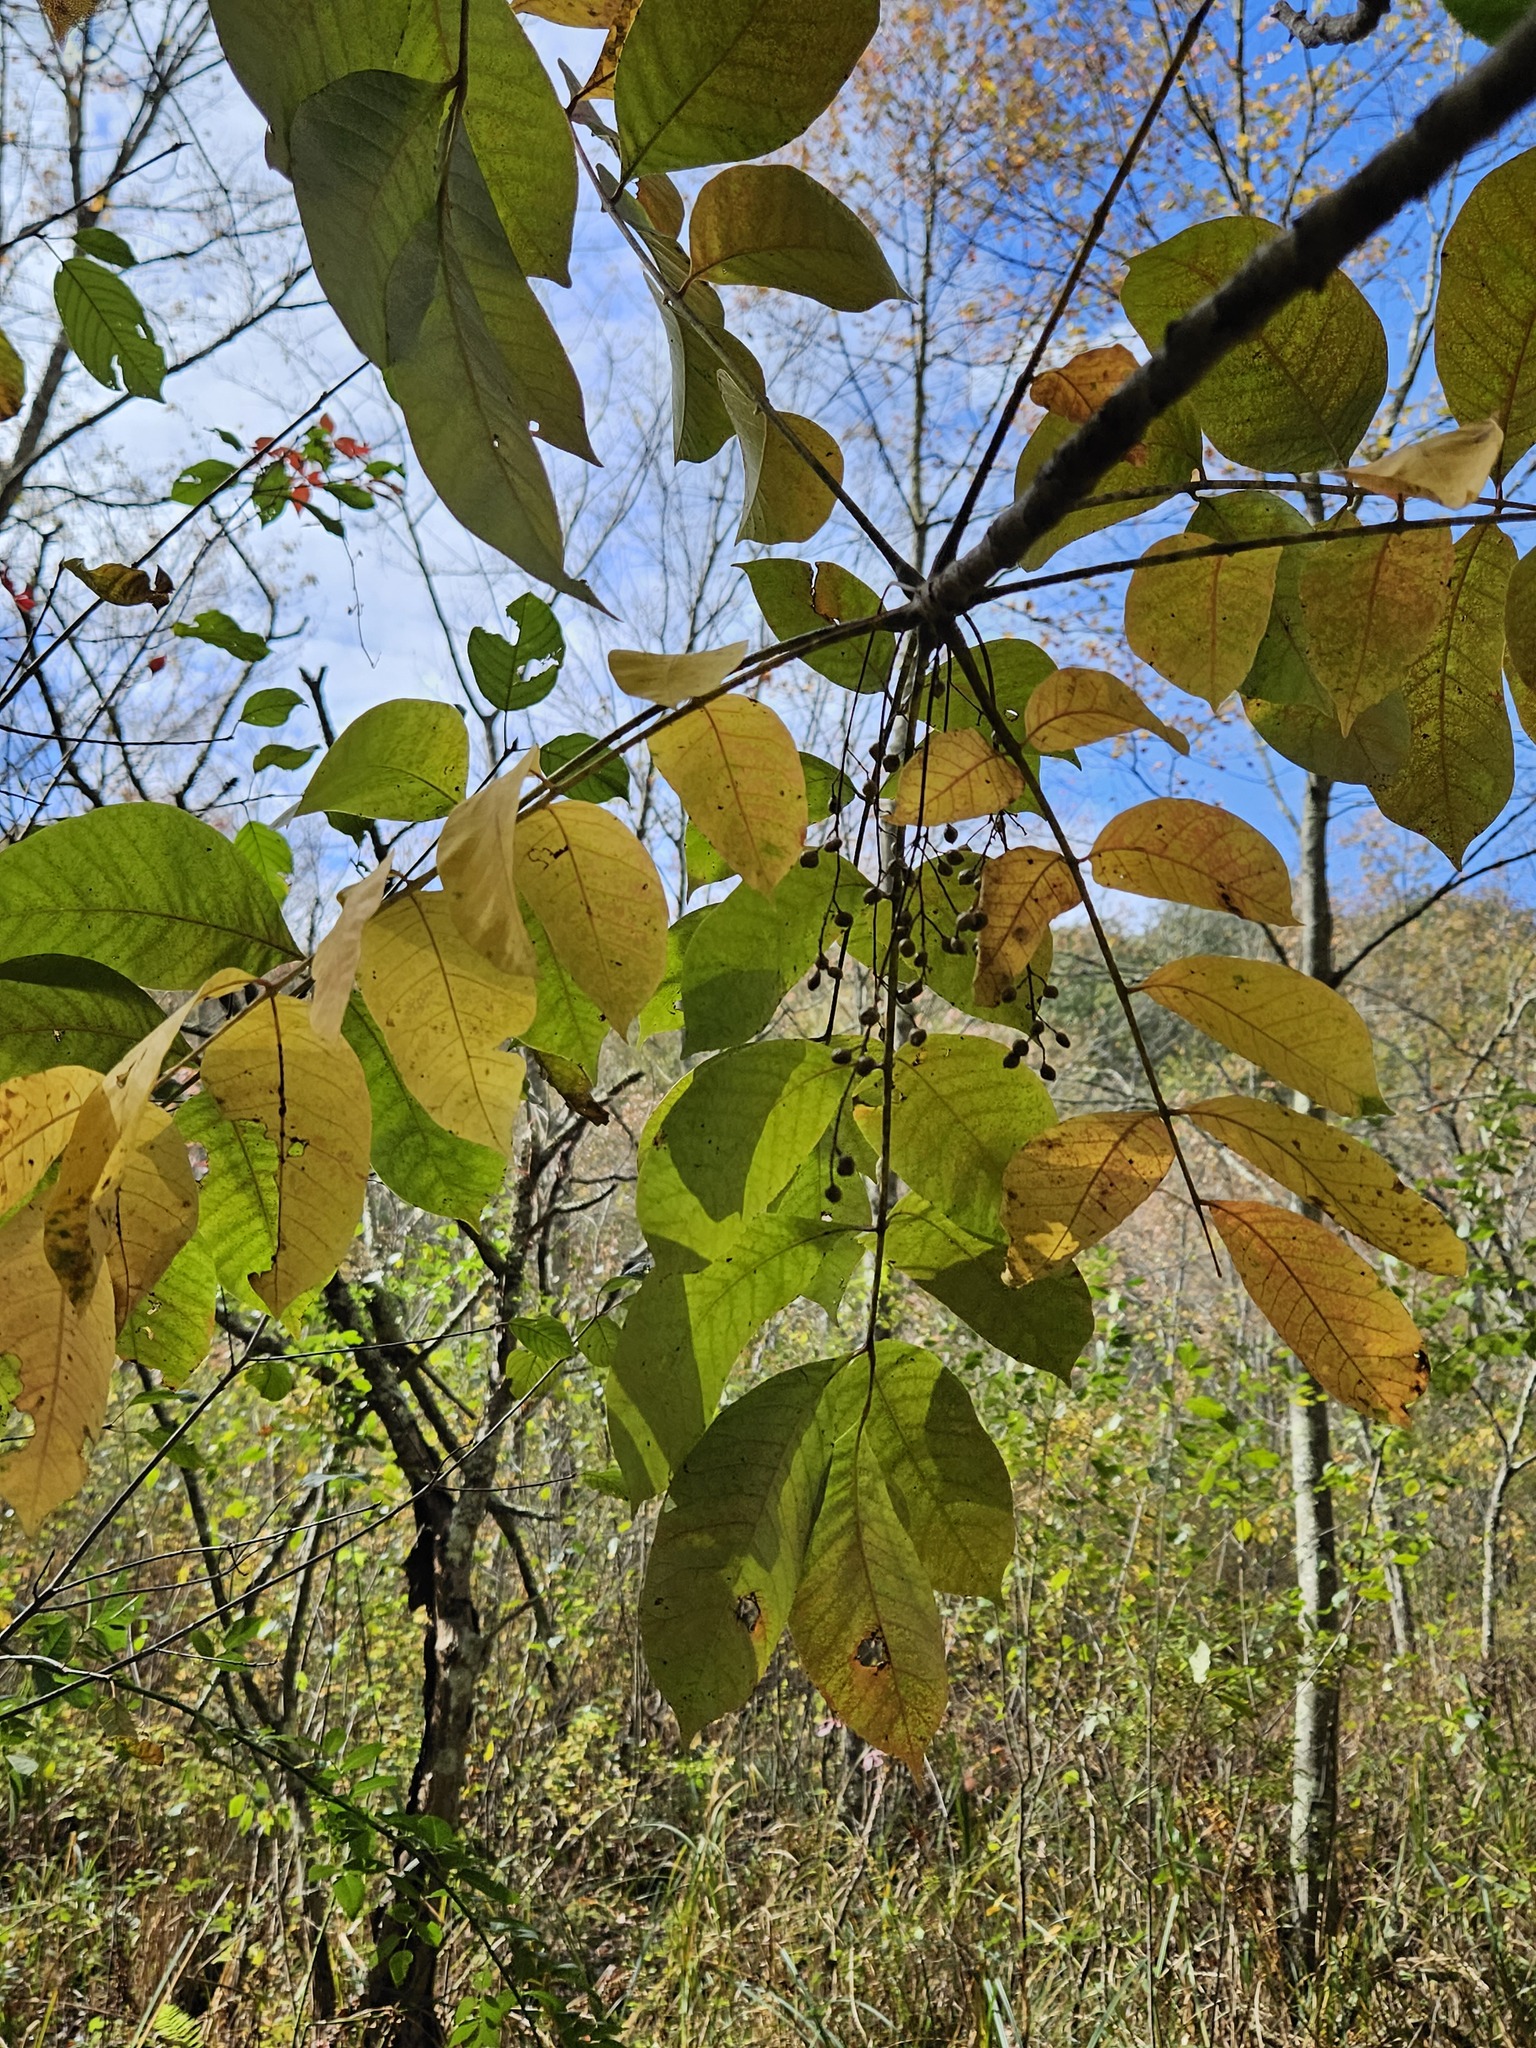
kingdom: Plantae
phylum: Tracheophyta
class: Magnoliopsida
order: Sapindales
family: Anacardiaceae
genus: Toxicodendron
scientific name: Toxicodendron vernix
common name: Poison sumac
